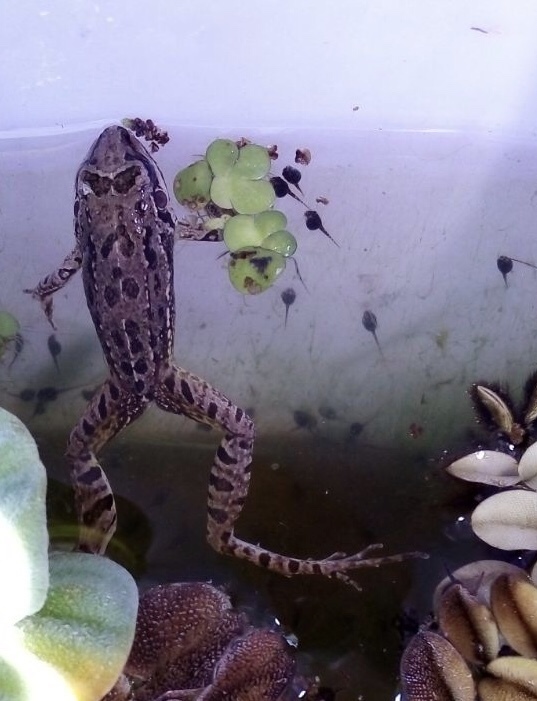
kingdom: Animalia
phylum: Chordata
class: Amphibia
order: Anura
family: Leptodactylidae
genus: Leptodactylus
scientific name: Leptodactylus latinasus
